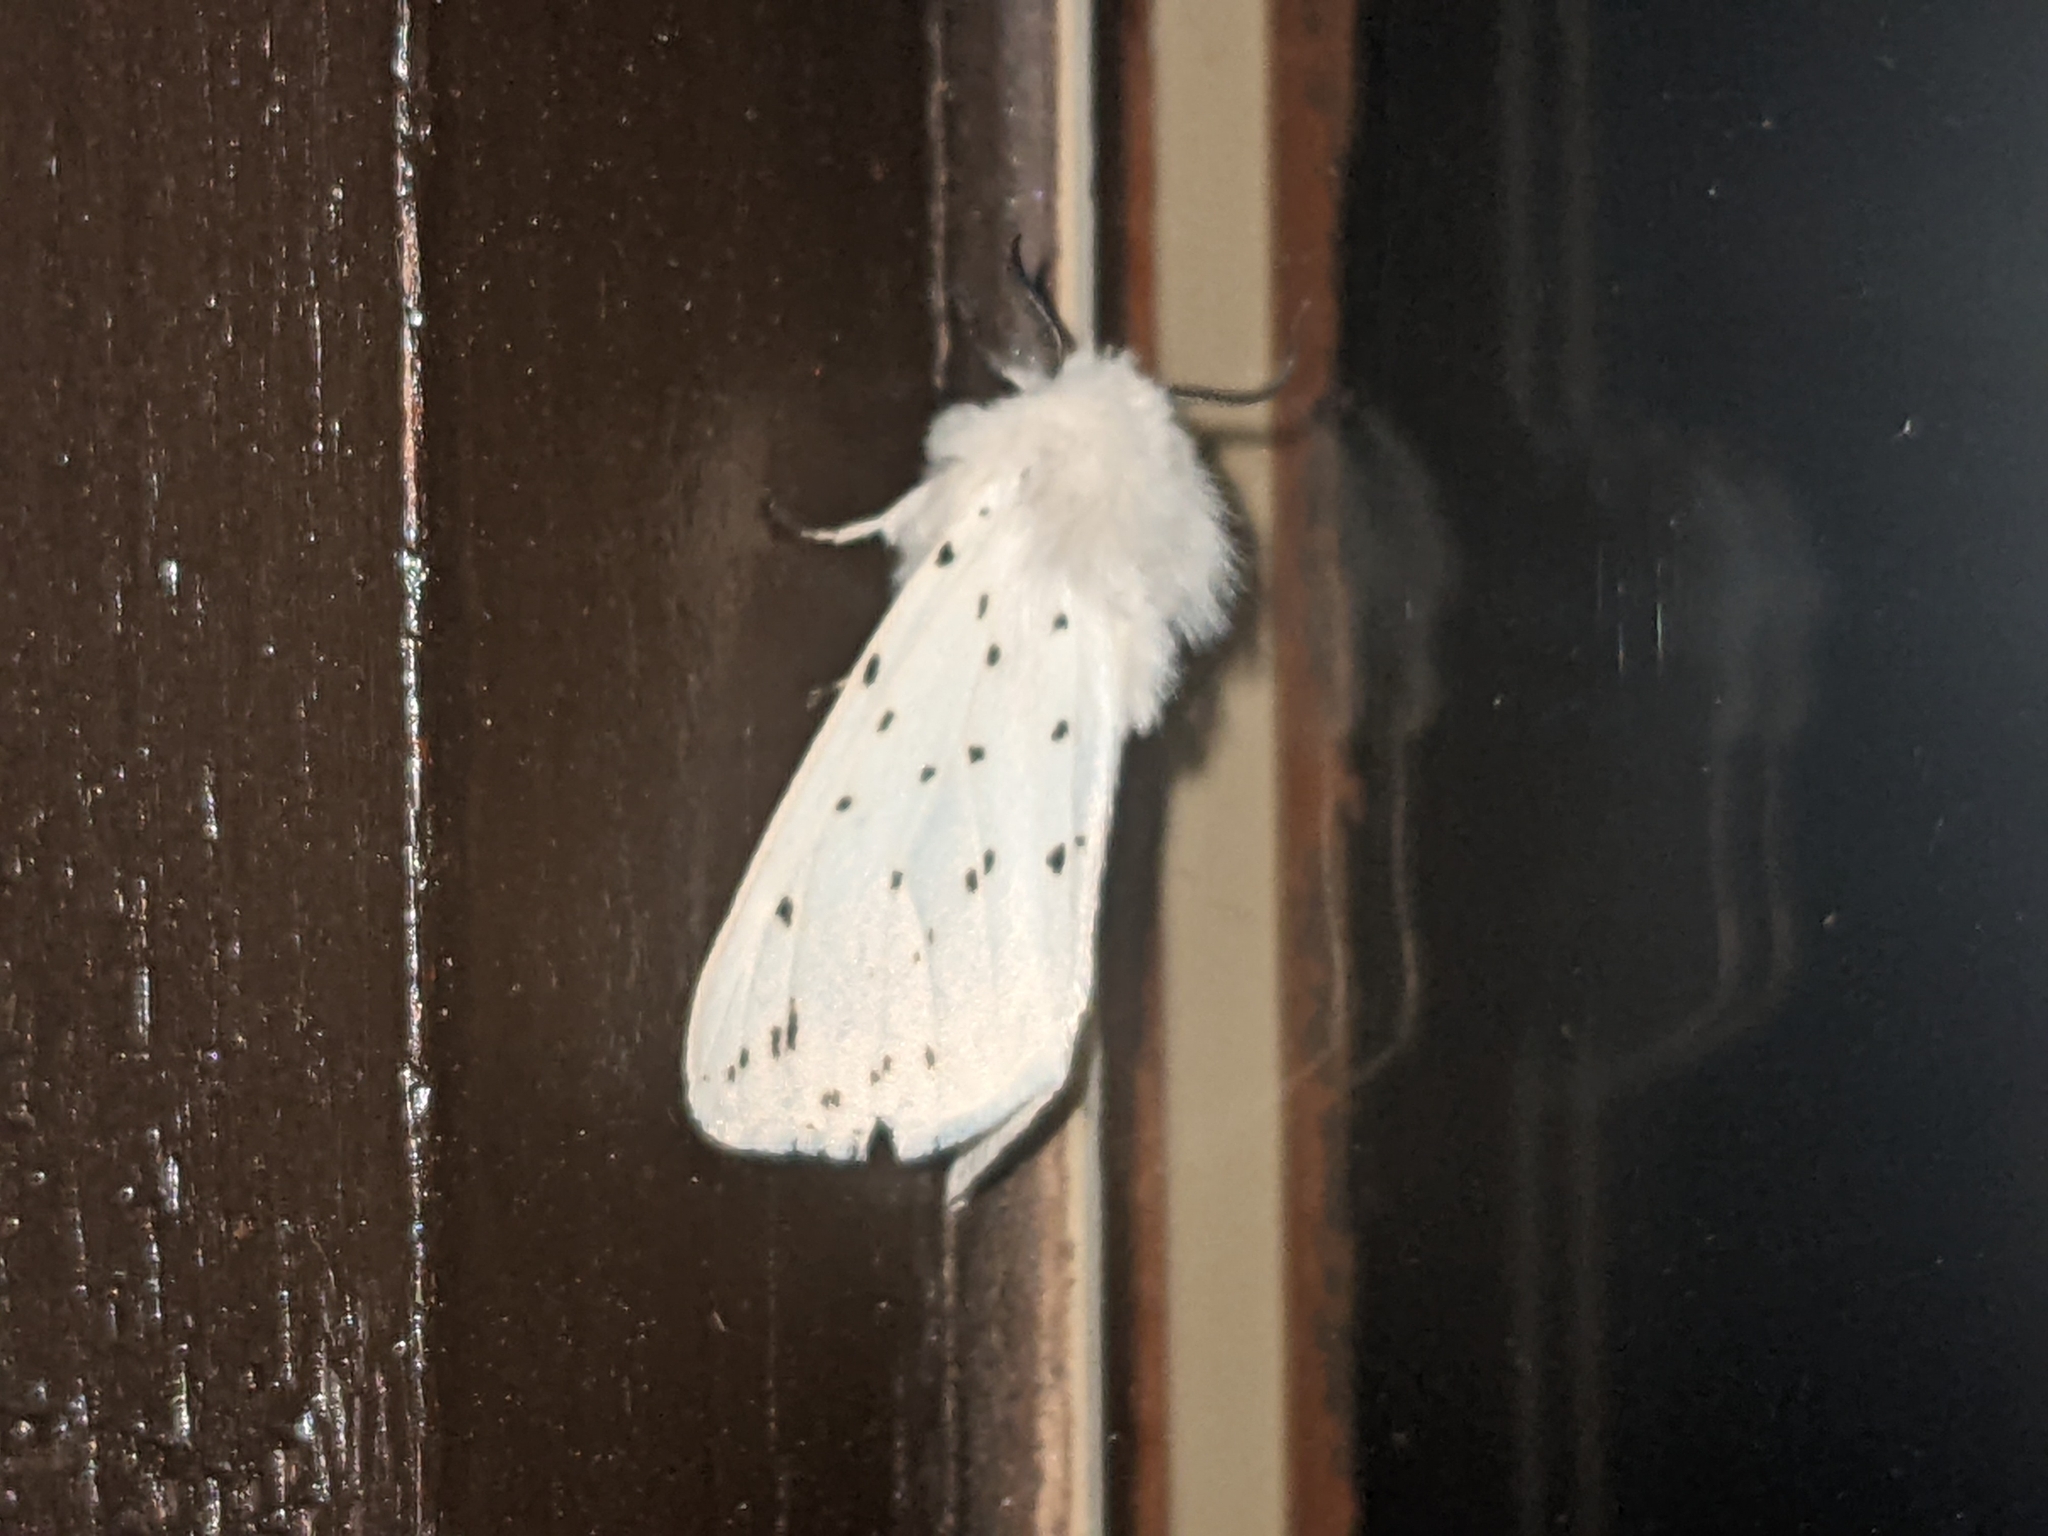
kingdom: Animalia
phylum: Arthropoda
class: Insecta
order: Lepidoptera
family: Erebidae
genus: Spilosoma
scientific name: Spilosoma lubricipeda
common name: White ermine
